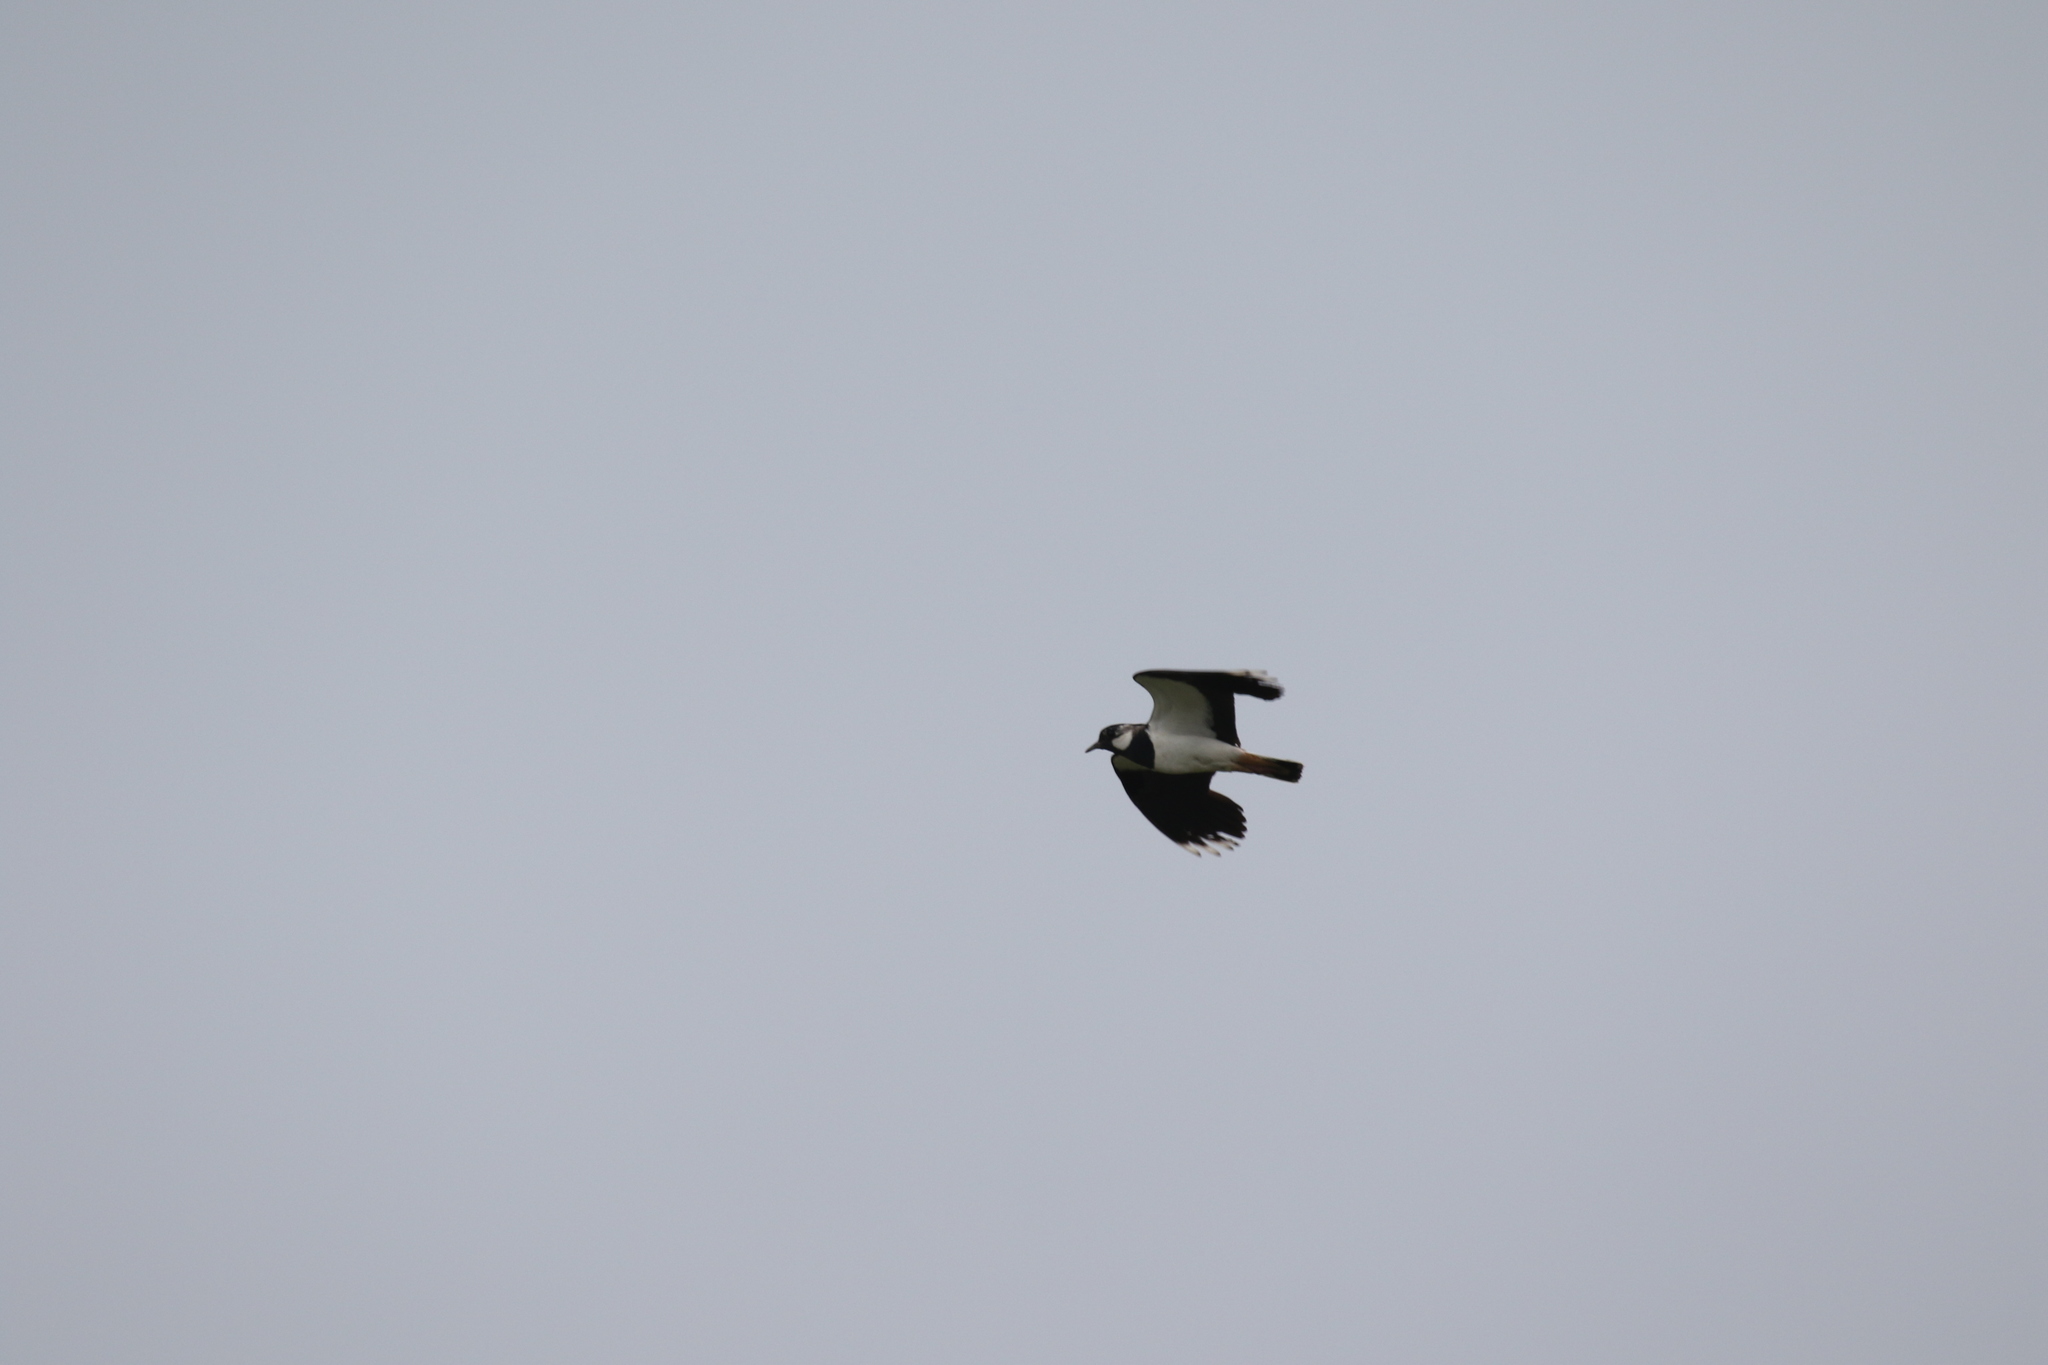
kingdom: Animalia
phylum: Chordata
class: Aves
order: Charadriiformes
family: Charadriidae
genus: Vanellus
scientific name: Vanellus vanellus
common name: Northern lapwing
